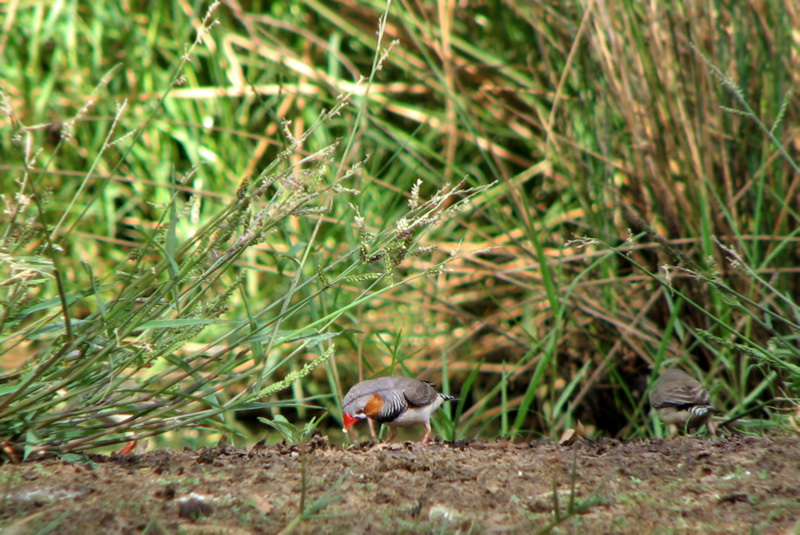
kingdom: Animalia
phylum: Chordata
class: Aves
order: Passeriformes
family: Estrildidae
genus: Taeniopygia
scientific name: Taeniopygia guttata
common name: Zebra finch
